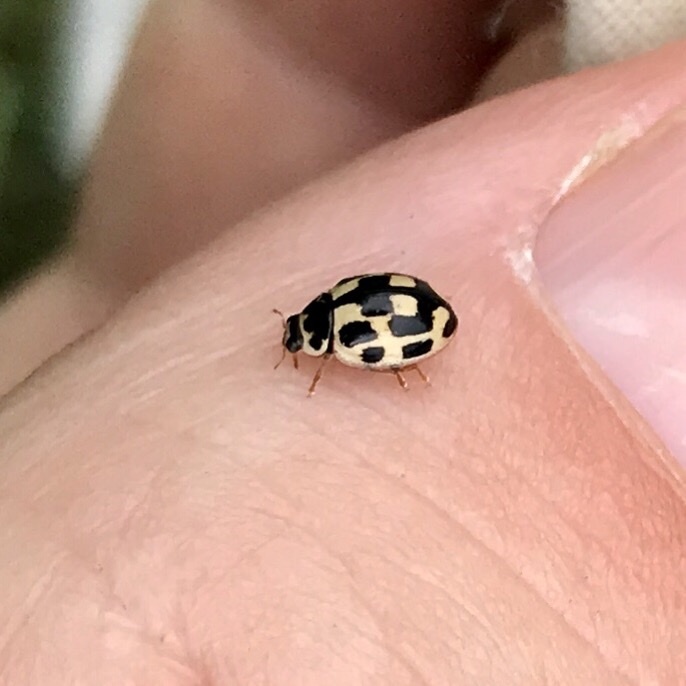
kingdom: Animalia
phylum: Arthropoda
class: Insecta
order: Coleoptera
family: Coccinellidae
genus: Propylaea
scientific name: Propylaea quatuordecimpunctata
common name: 14-spotted ladybird beetle
